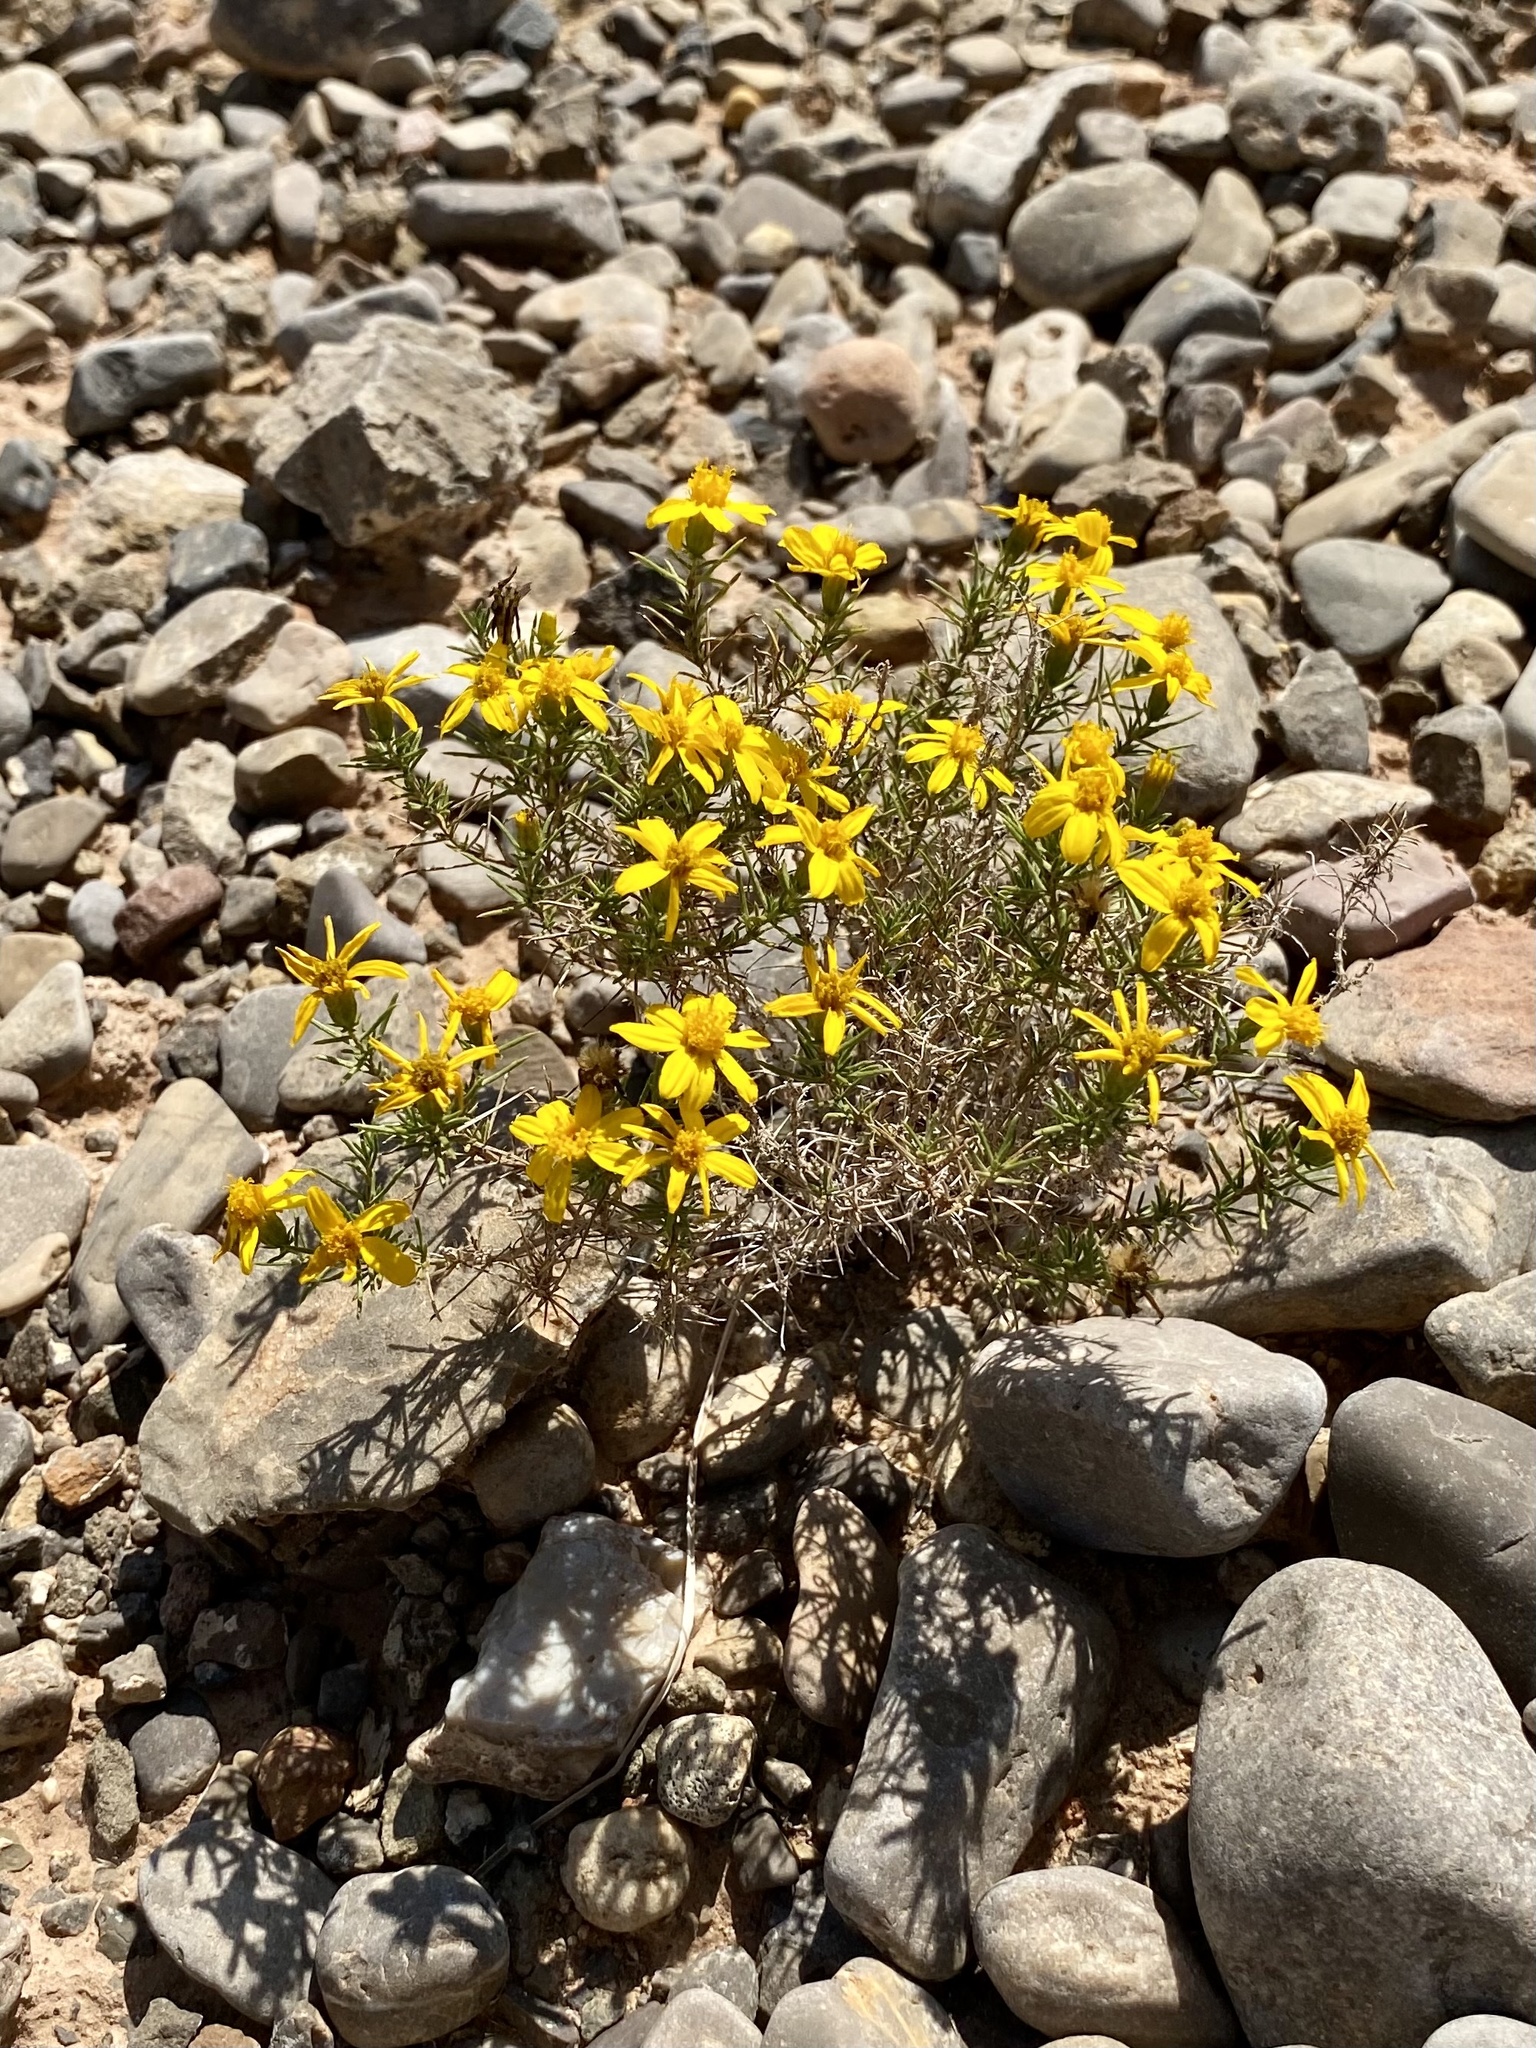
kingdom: Plantae
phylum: Tracheophyta
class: Magnoliopsida
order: Asterales
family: Asteraceae
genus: Thymophylla
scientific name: Thymophylla acerosa
